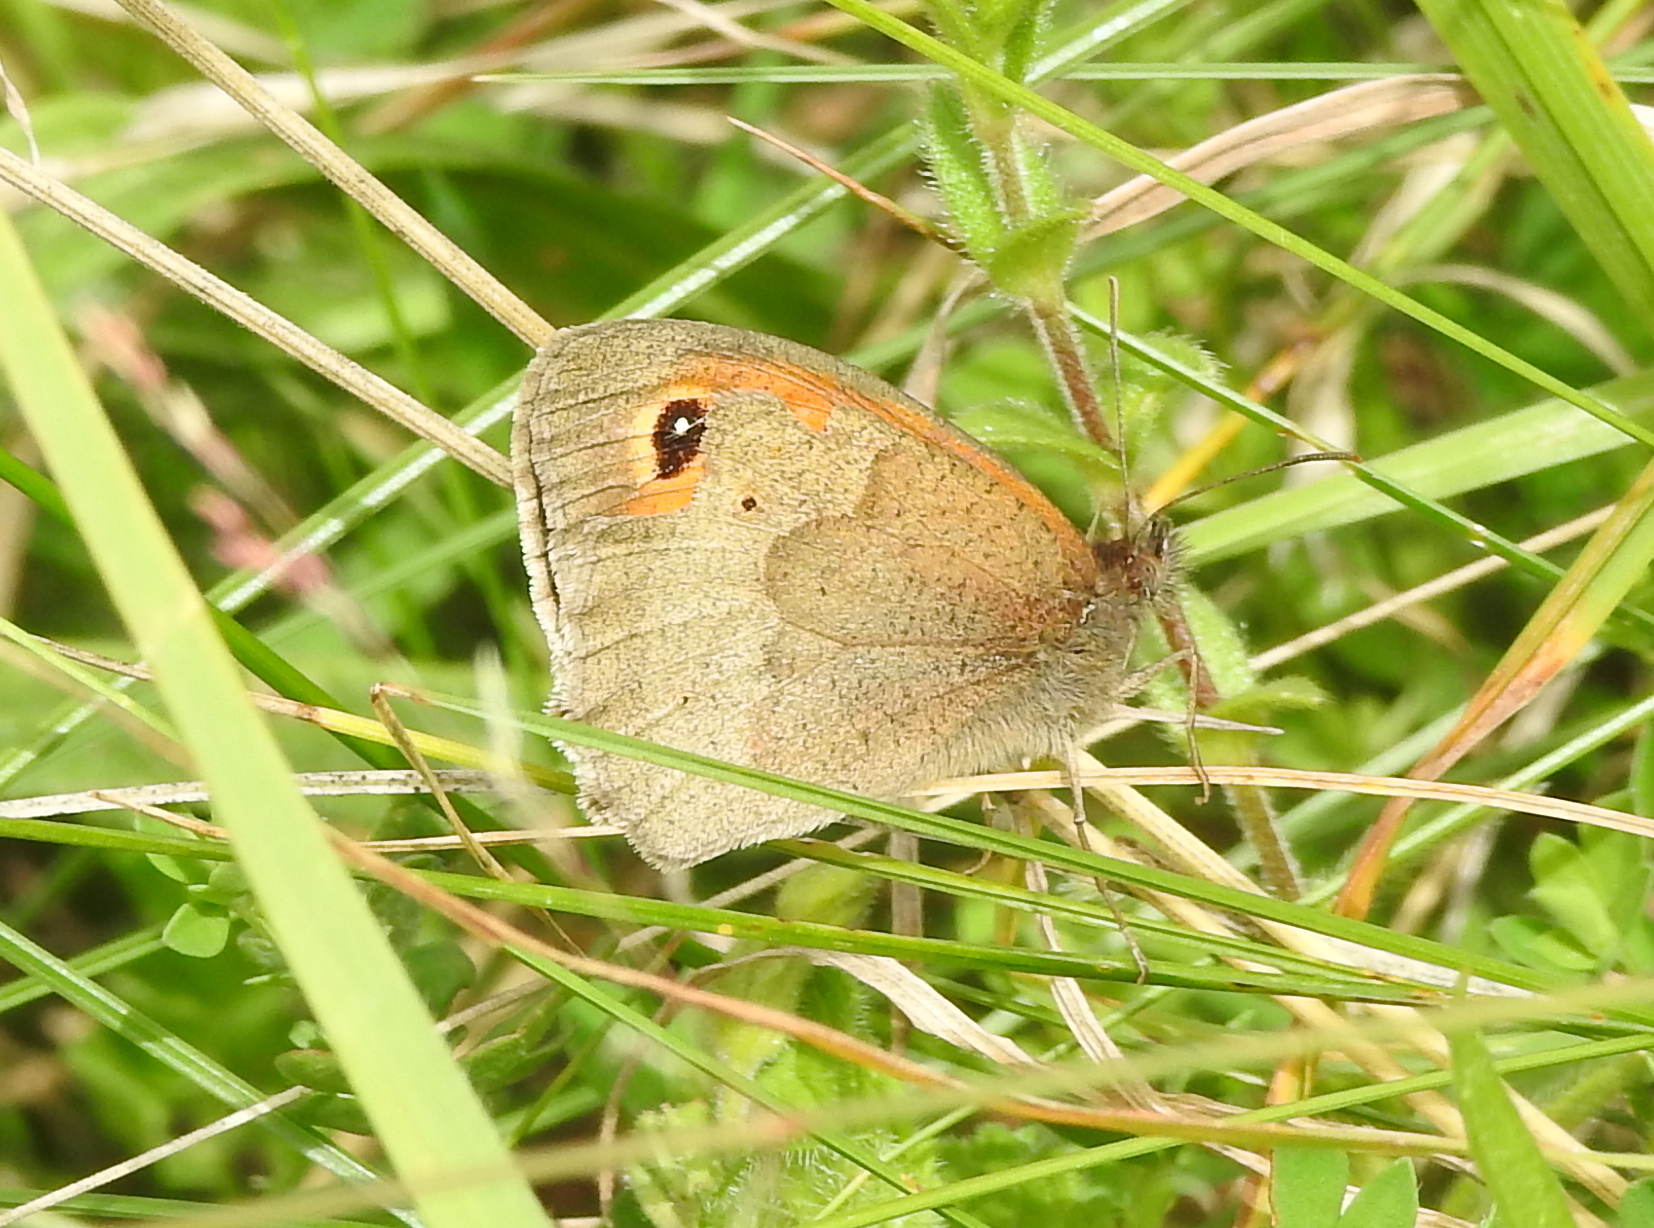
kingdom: Animalia
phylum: Arthropoda
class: Insecta
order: Lepidoptera
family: Nymphalidae
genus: Maniola
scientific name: Maniola jurtina
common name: Meadow brown
